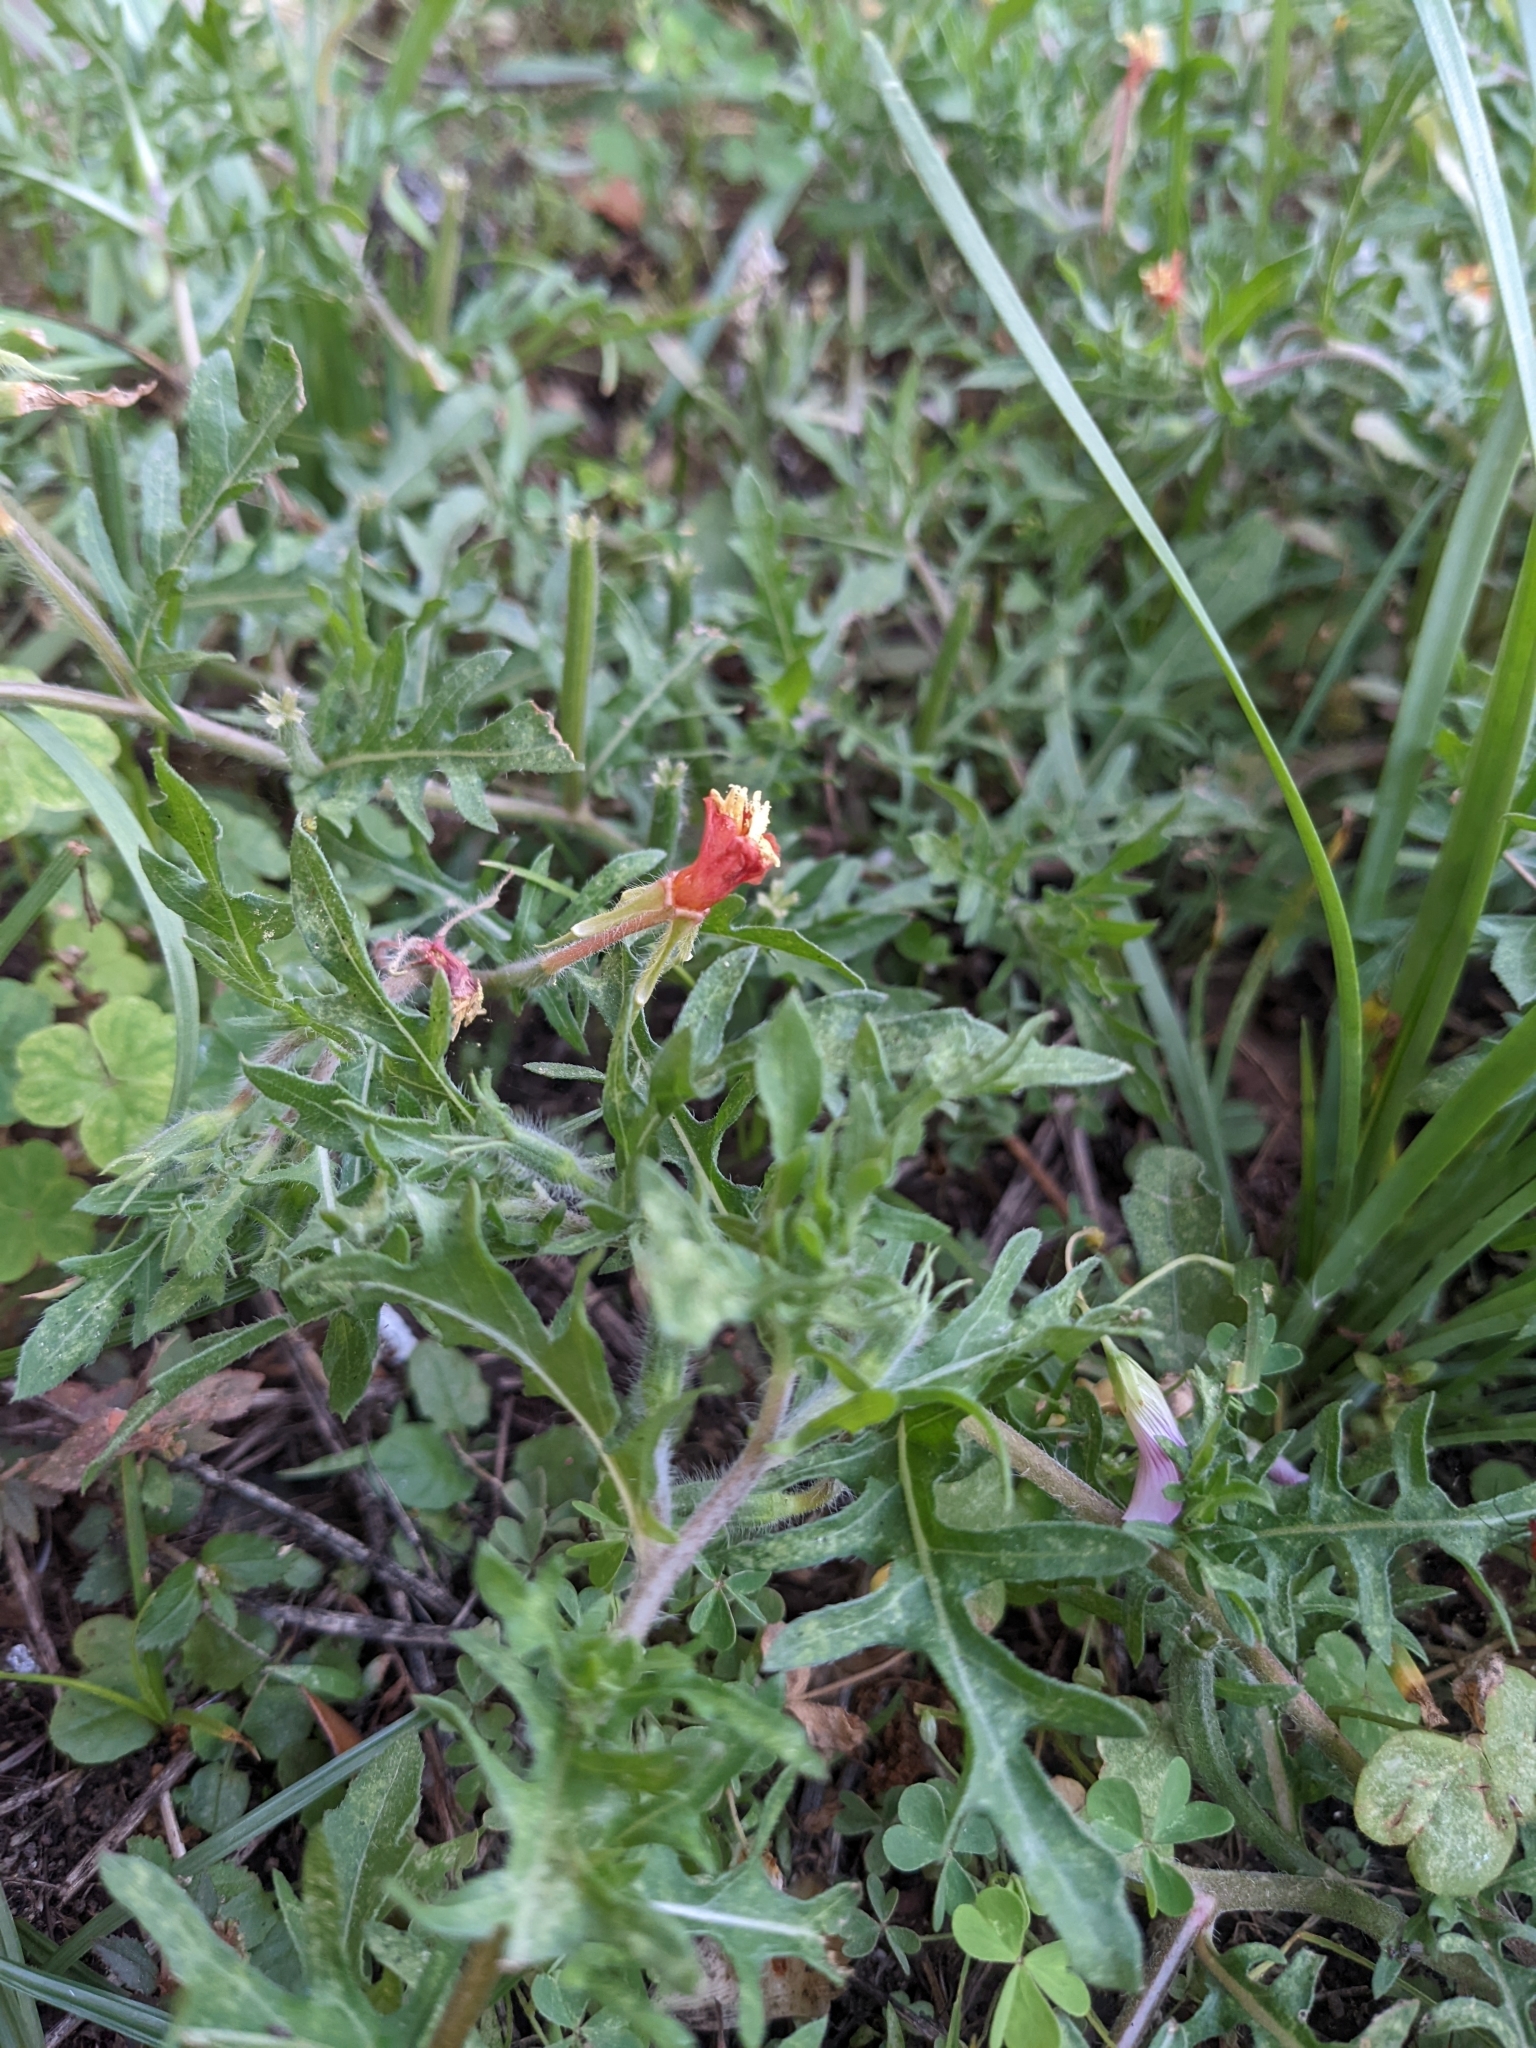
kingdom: Plantae
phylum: Tracheophyta
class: Magnoliopsida
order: Myrtales
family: Onagraceae
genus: Oenothera
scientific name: Oenothera laciniata
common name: Cut-leaved evening-primrose
